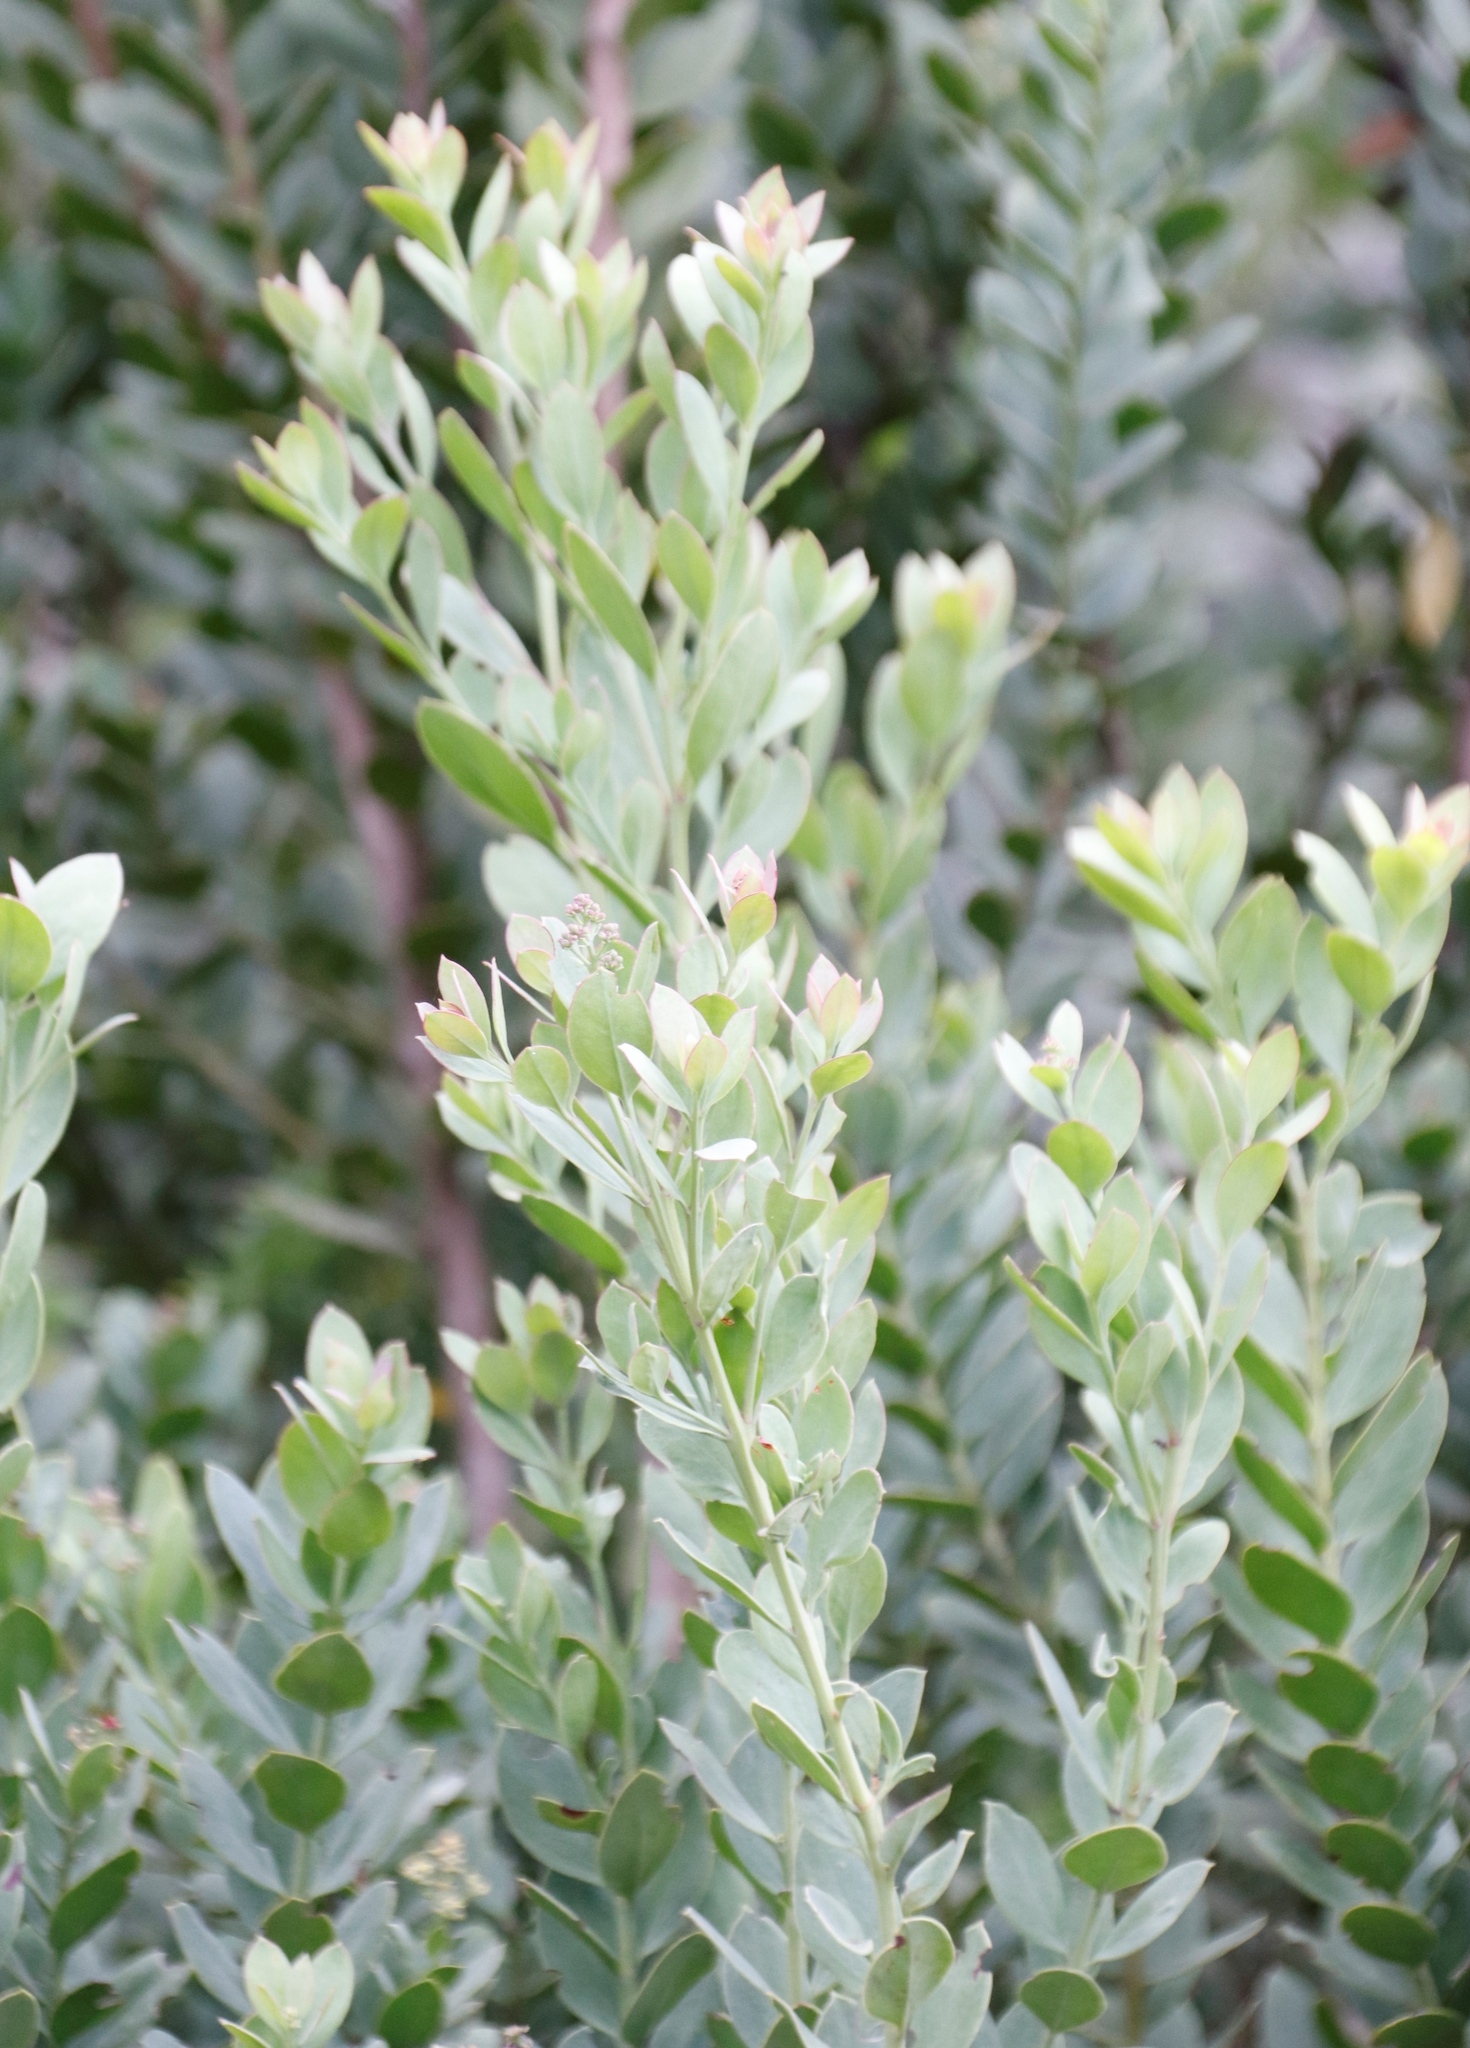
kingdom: Plantae
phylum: Tracheophyta
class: Magnoliopsida
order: Santalales
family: Santalaceae
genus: Osyris
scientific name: Osyris compressa
